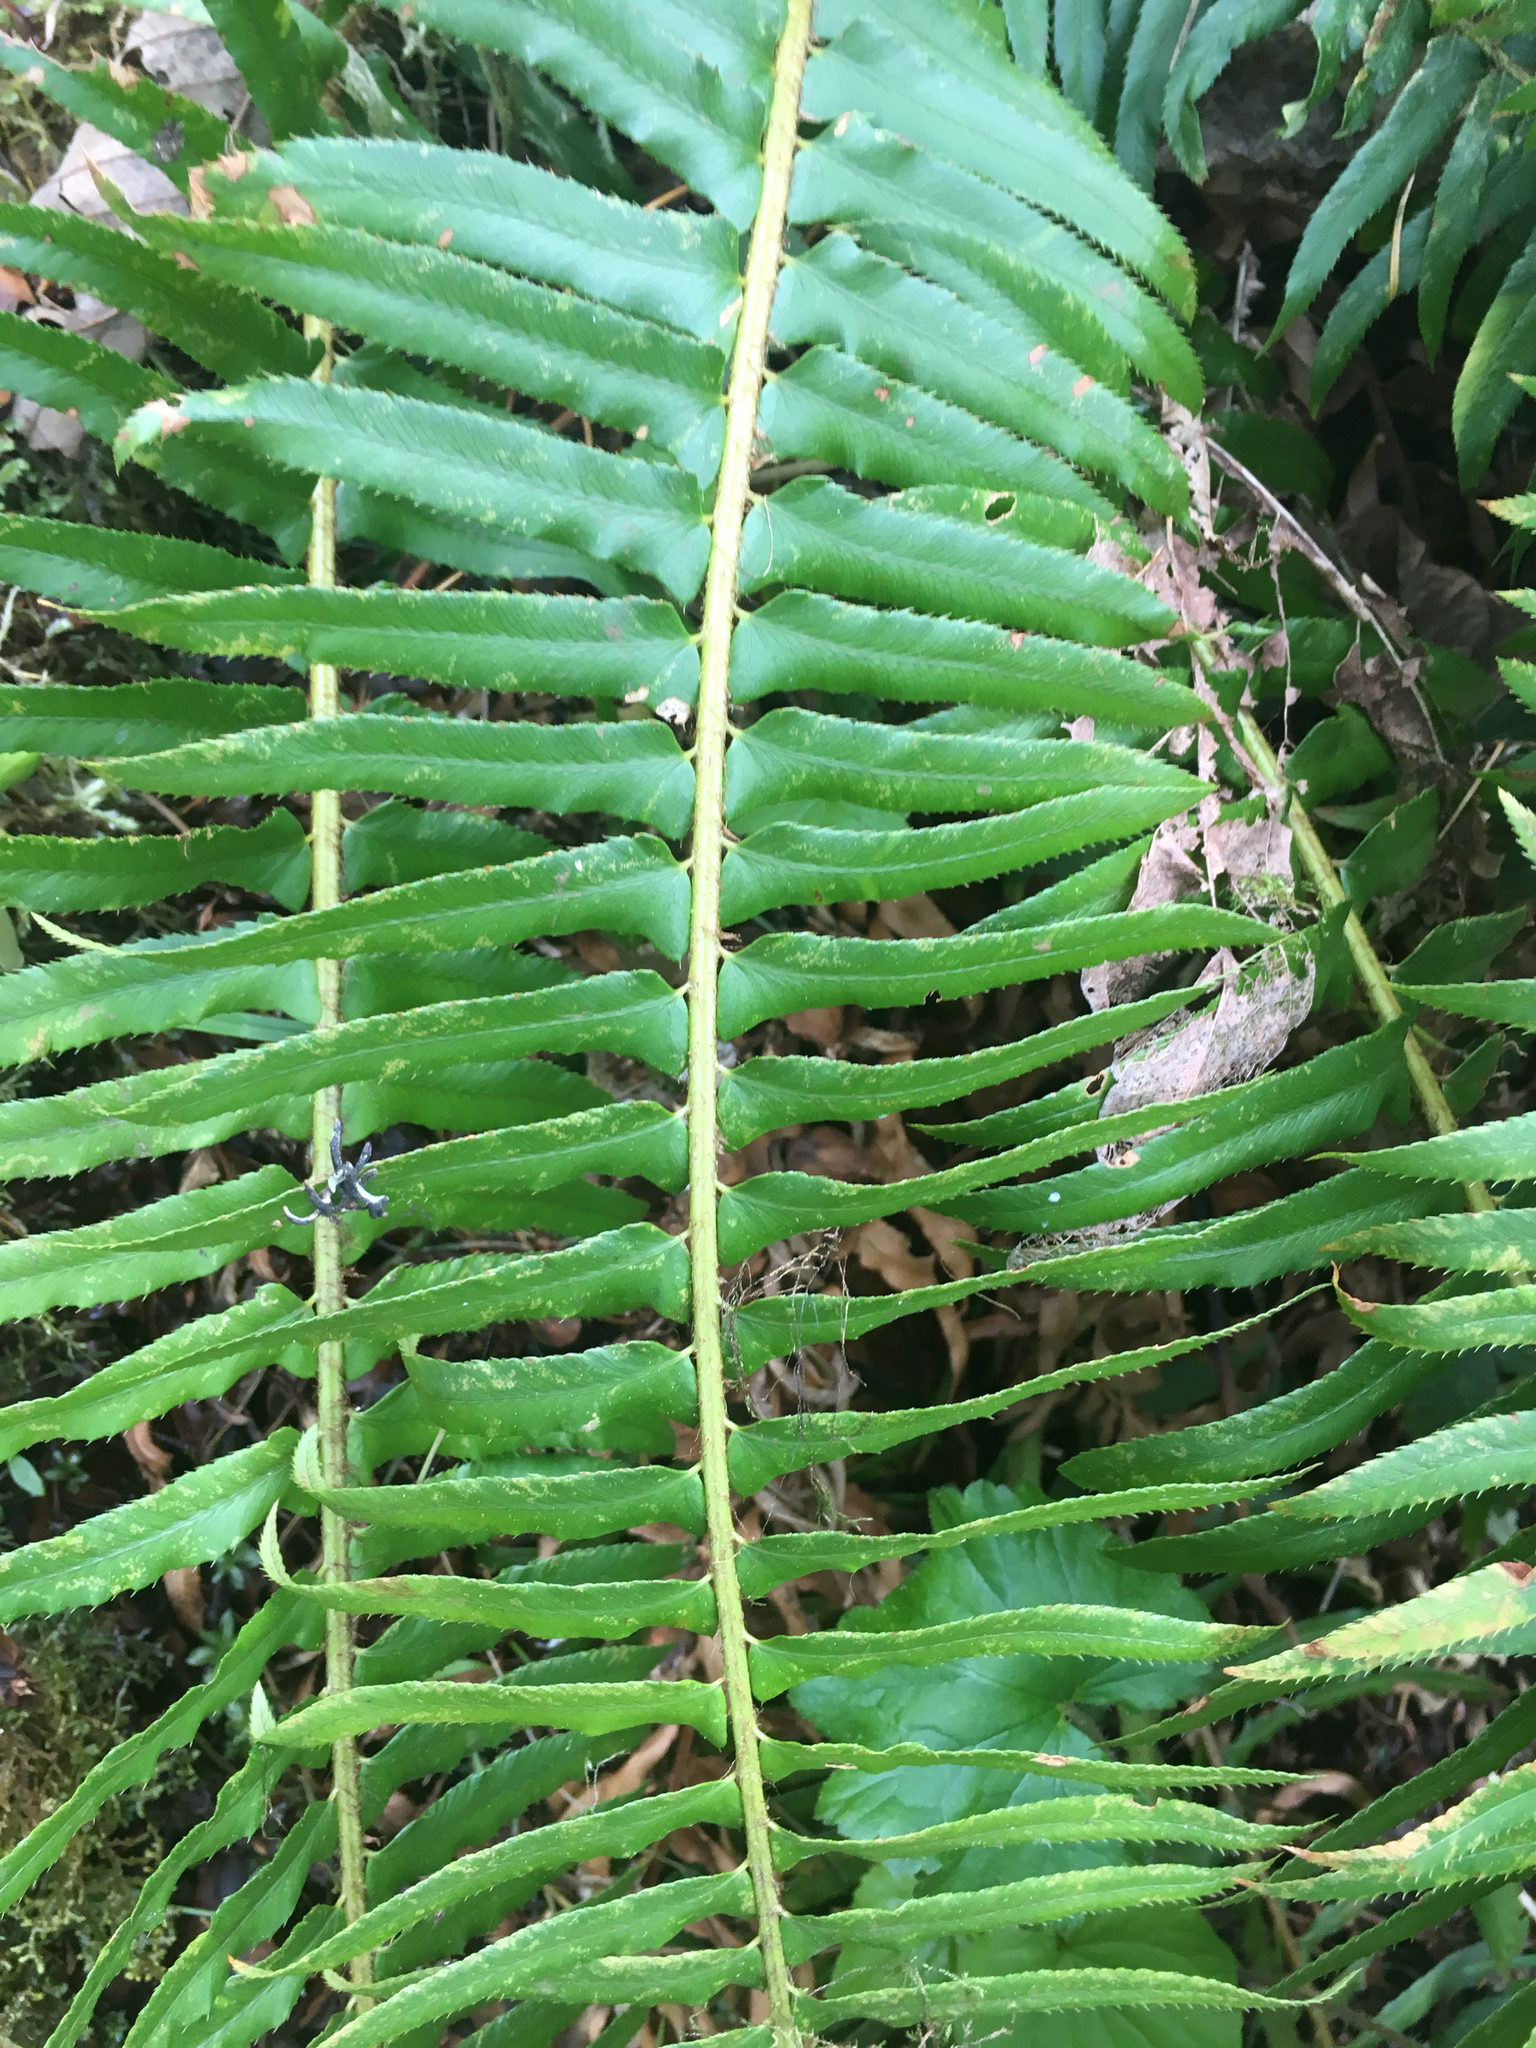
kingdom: Plantae
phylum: Tracheophyta
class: Polypodiopsida
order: Polypodiales
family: Dryopteridaceae
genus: Polystichum
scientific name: Polystichum munitum
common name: Western sword-fern
